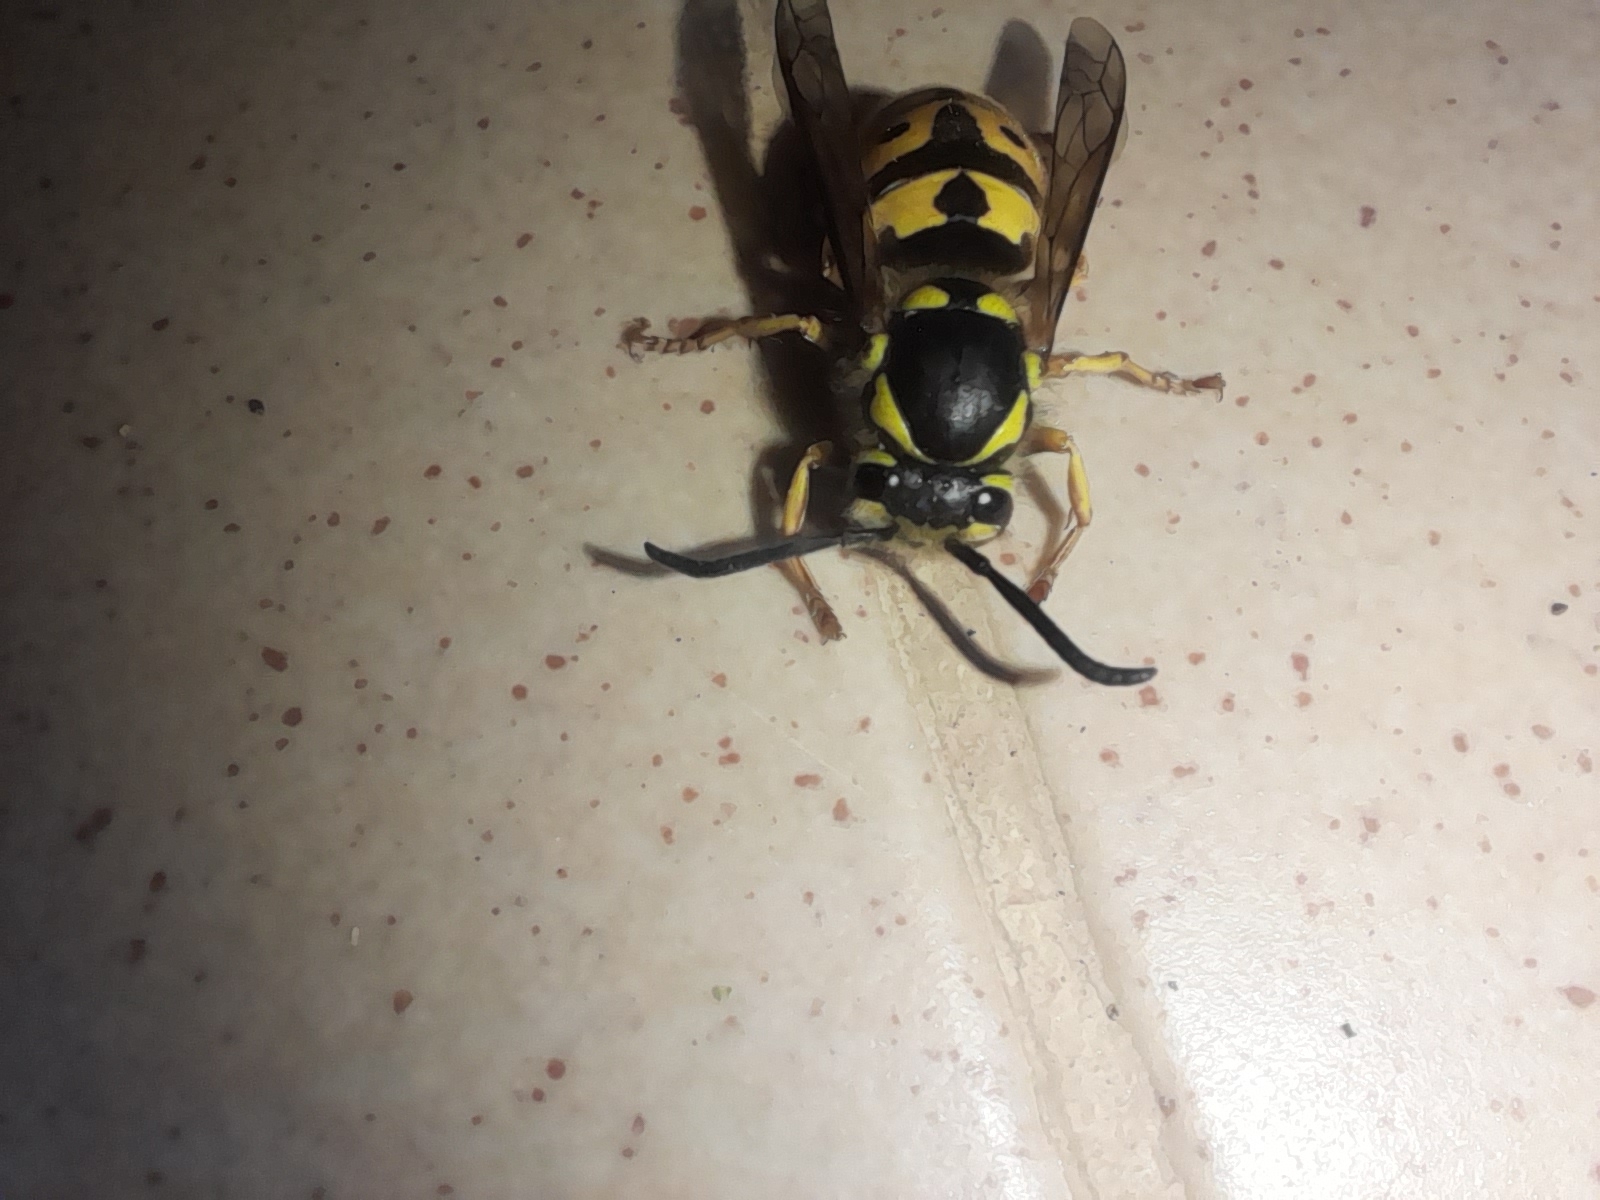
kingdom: Animalia
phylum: Arthropoda
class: Insecta
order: Hymenoptera
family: Vespidae
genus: Vespula
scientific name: Vespula germanica
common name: German wasp
